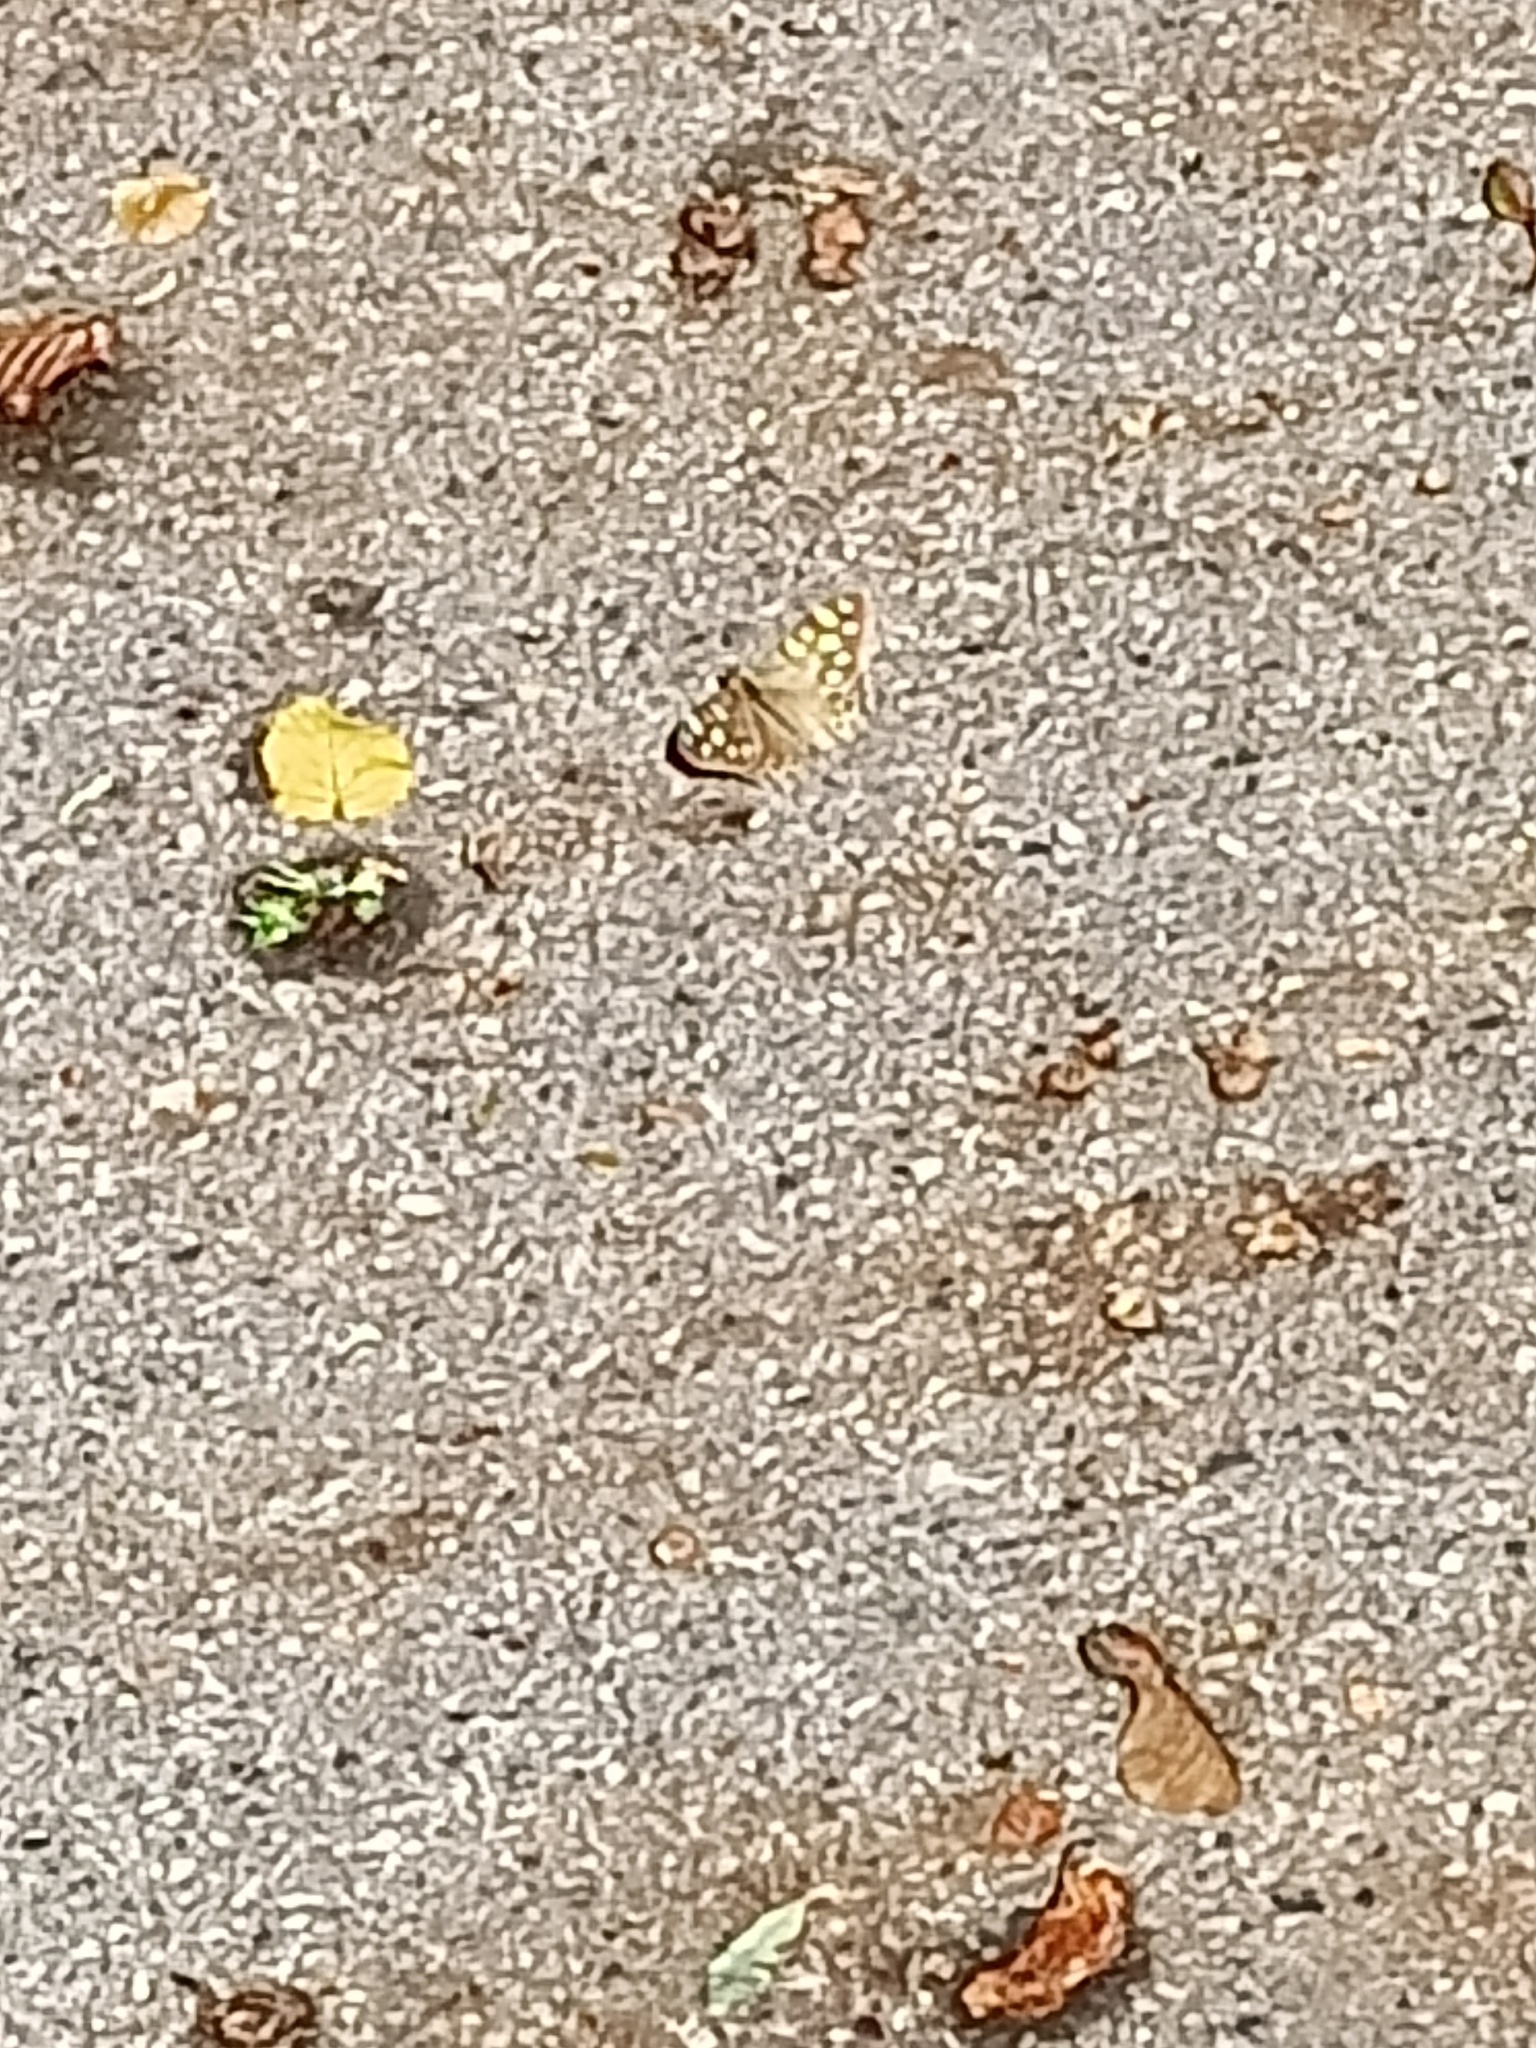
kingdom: Animalia
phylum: Arthropoda
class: Insecta
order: Lepidoptera
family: Nymphalidae
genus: Pararge
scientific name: Pararge aegeria
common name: Speckled wood
